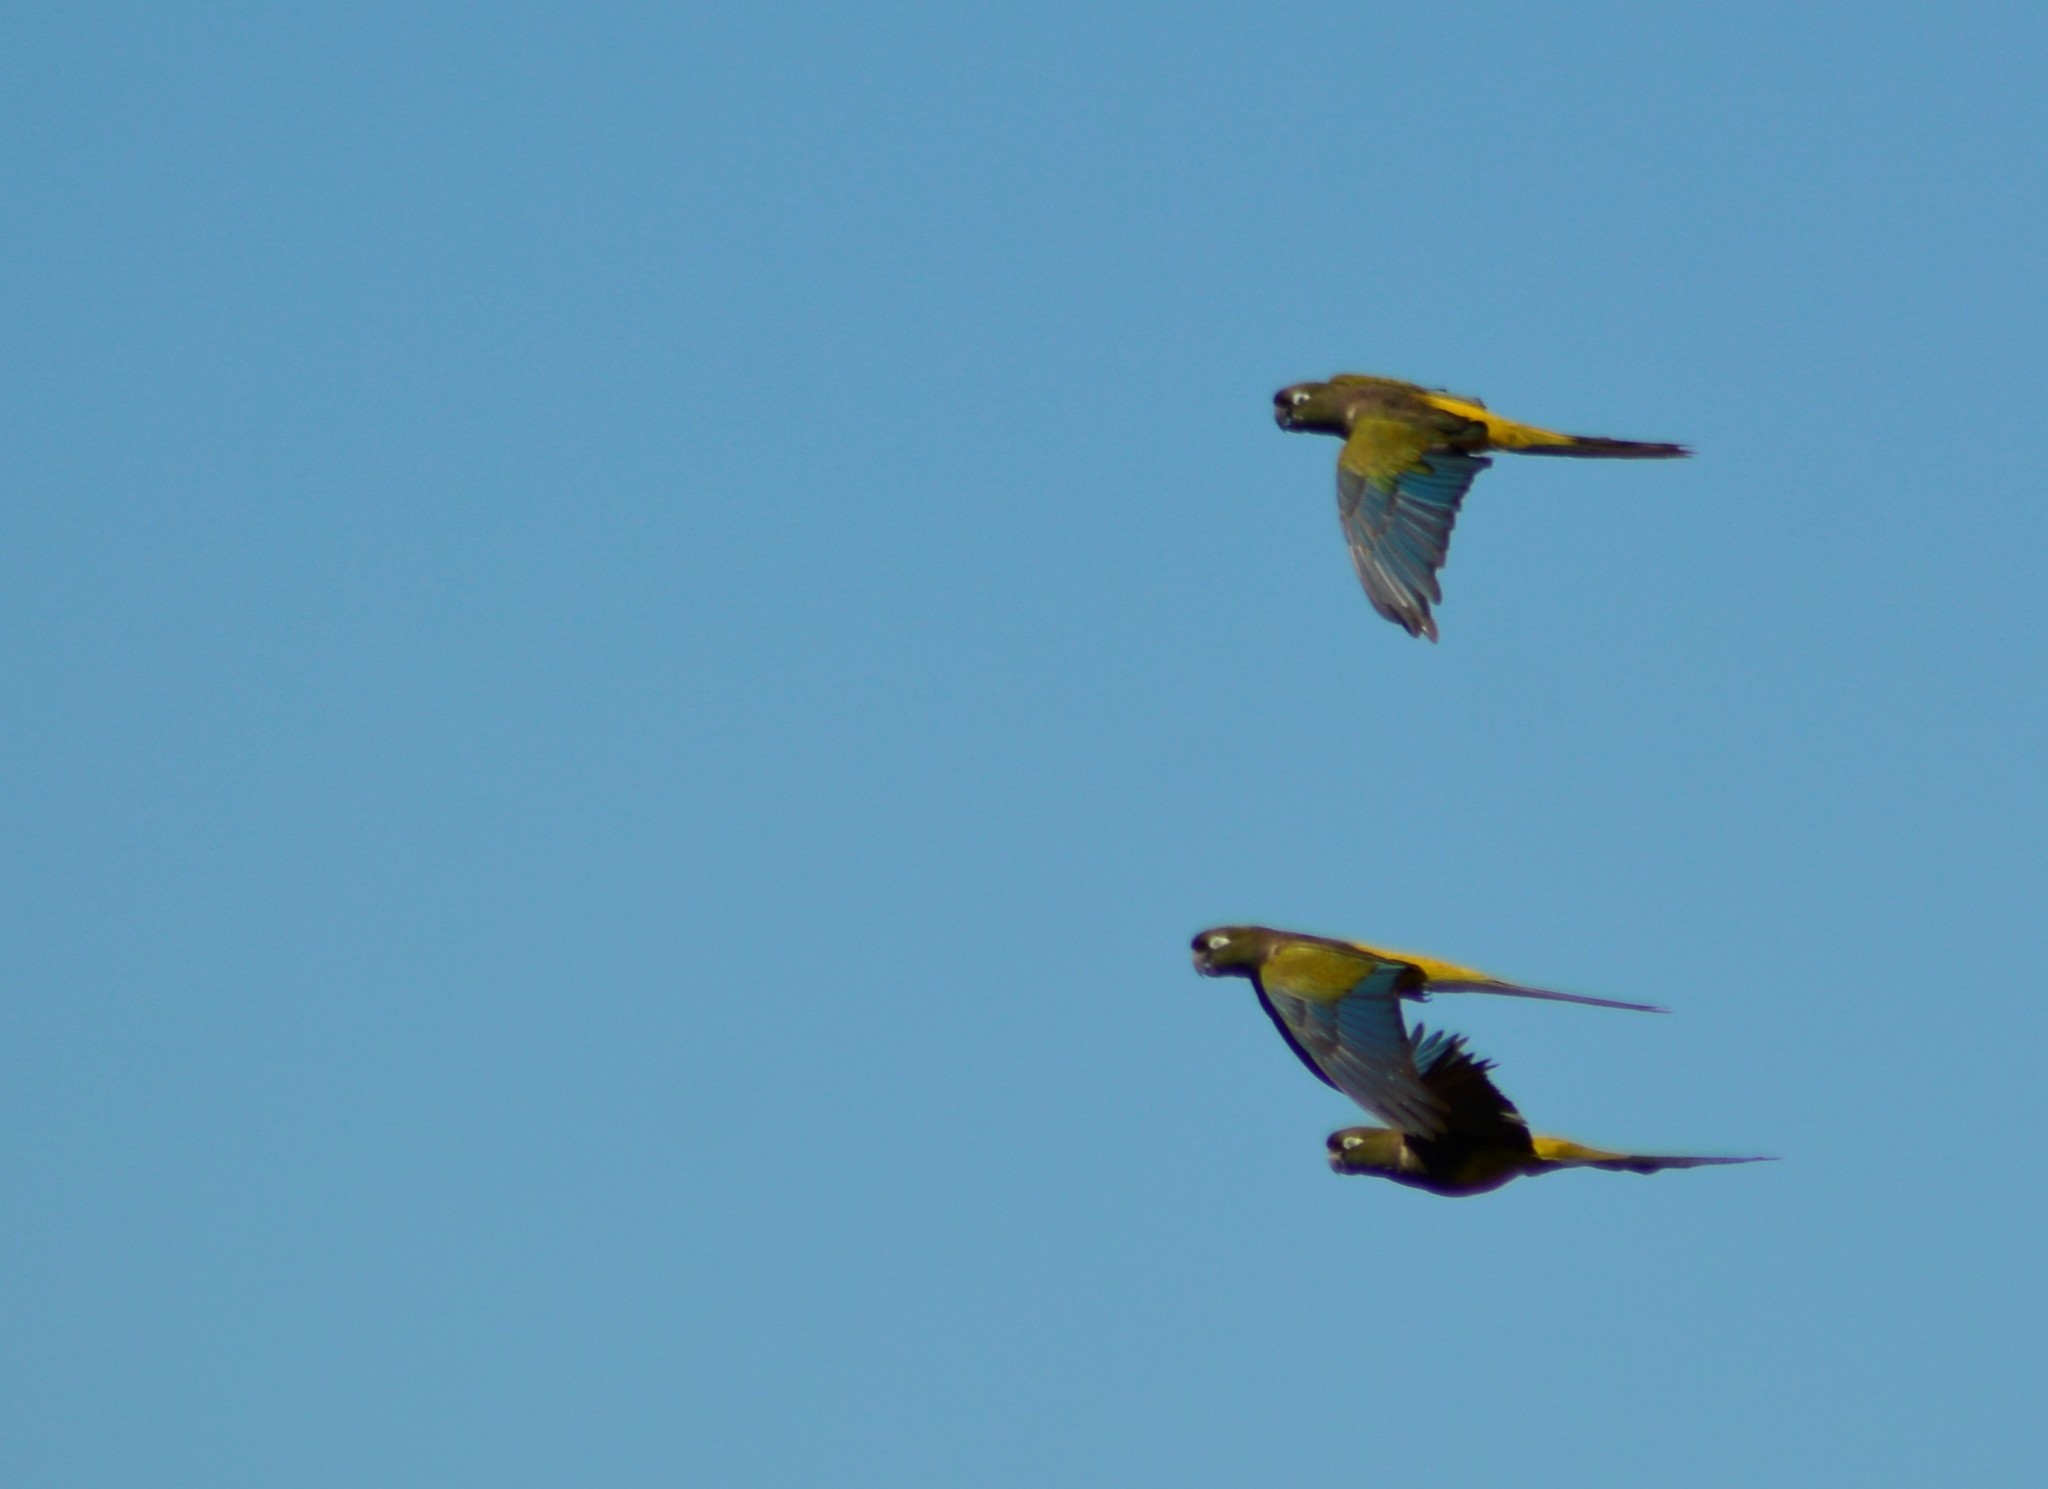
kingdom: Animalia
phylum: Chordata
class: Aves
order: Psittaciformes
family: Psittacidae
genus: Cyanoliseus
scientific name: Cyanoliseus patagonus
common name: Burrowing parrot
